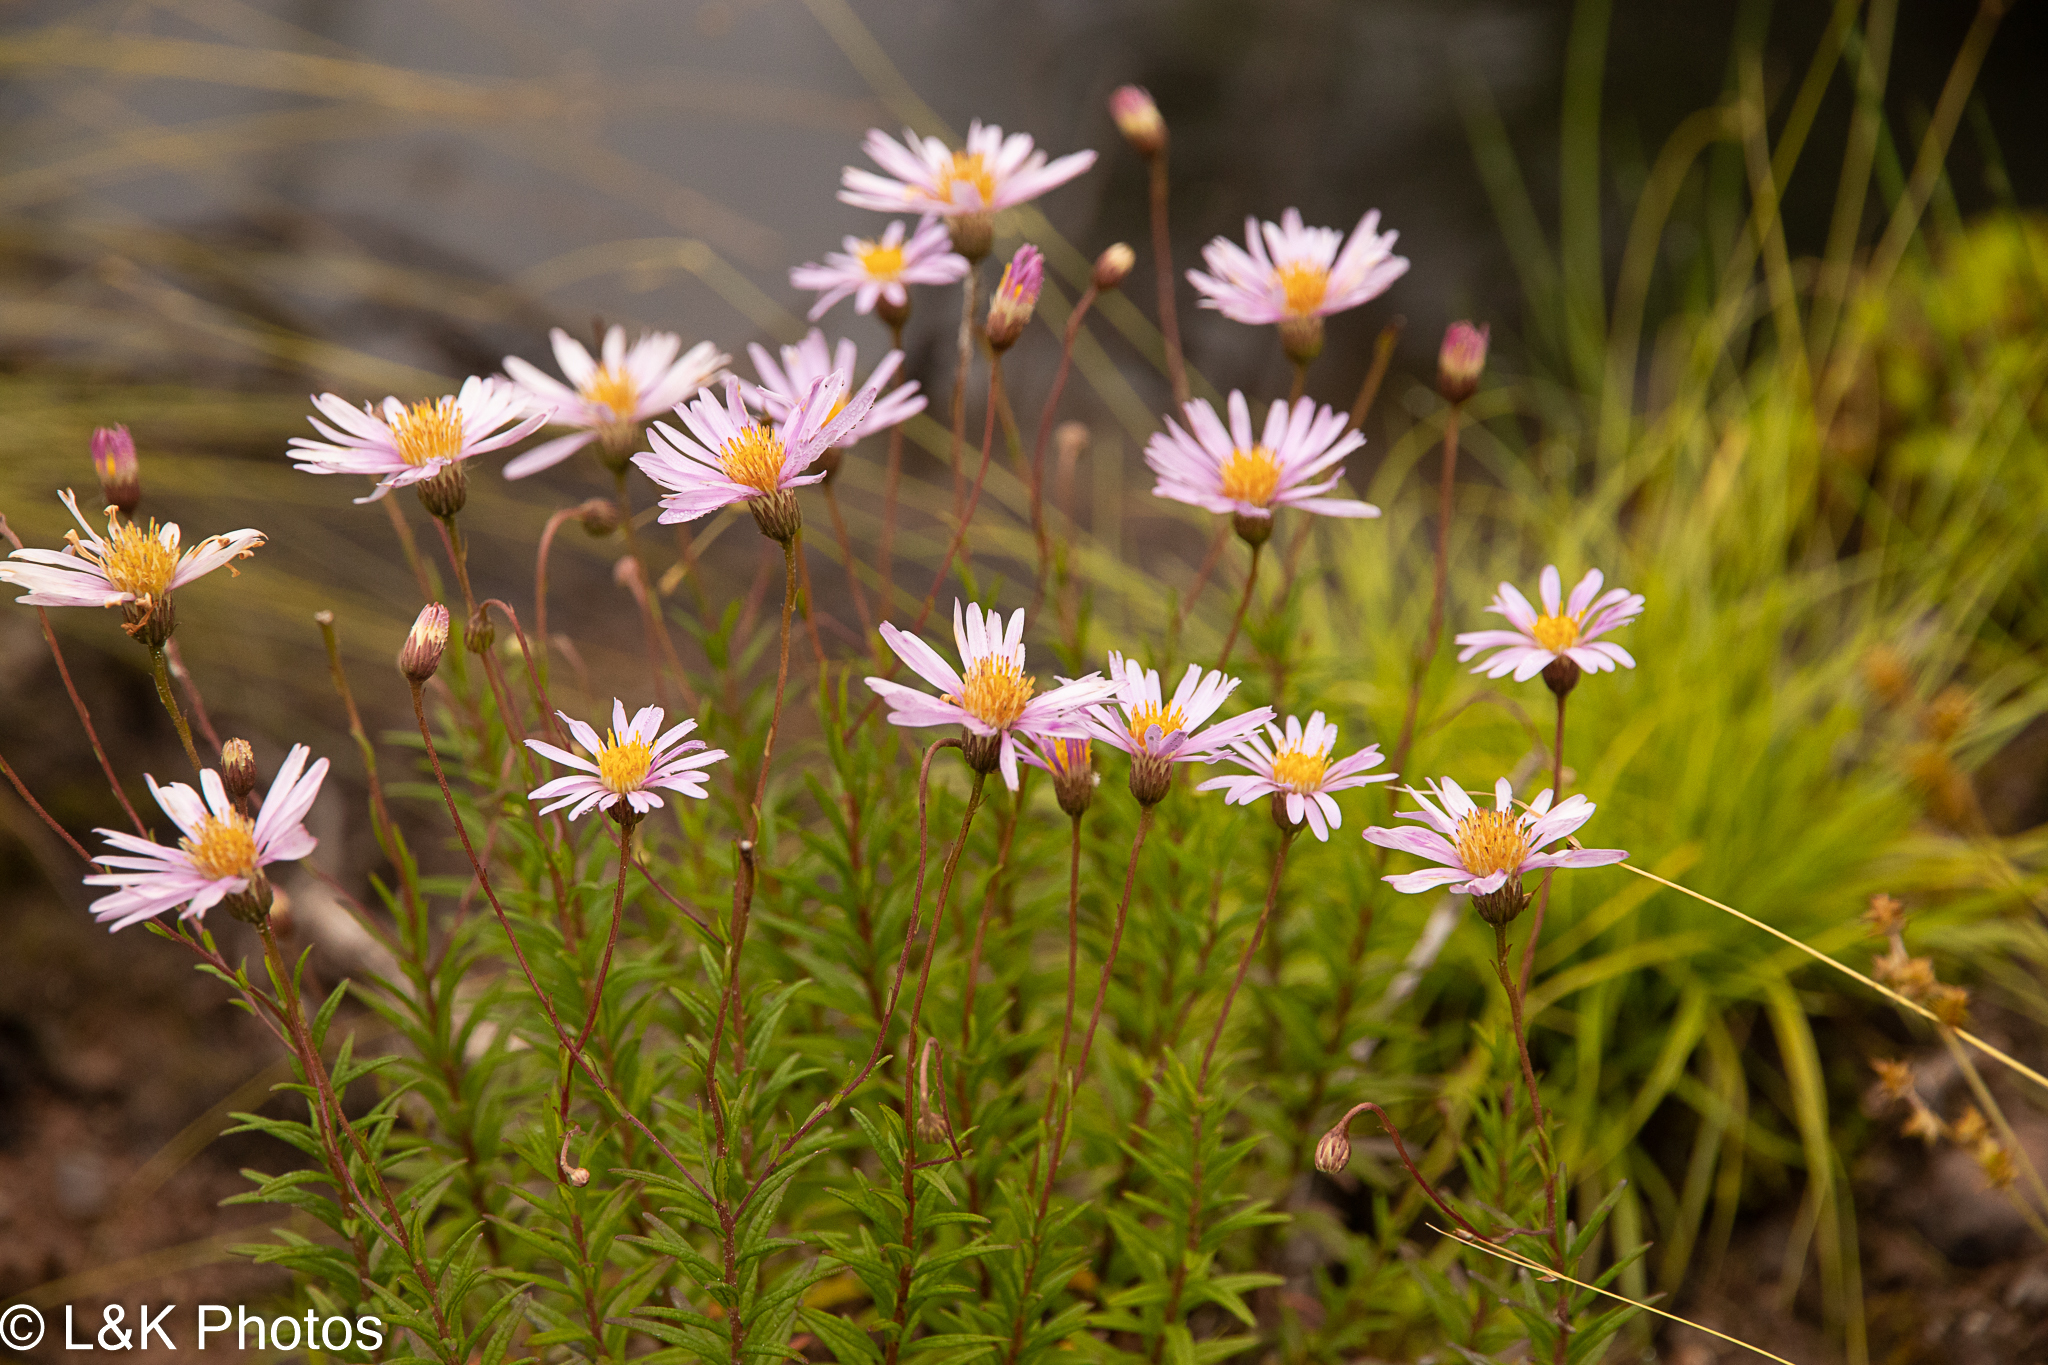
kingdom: Plantae
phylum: Tracheophyta
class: Magnoliopsida
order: Asterales
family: Asteraceae
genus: Oclemena
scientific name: Oclemena nemoralis
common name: Bog aster
